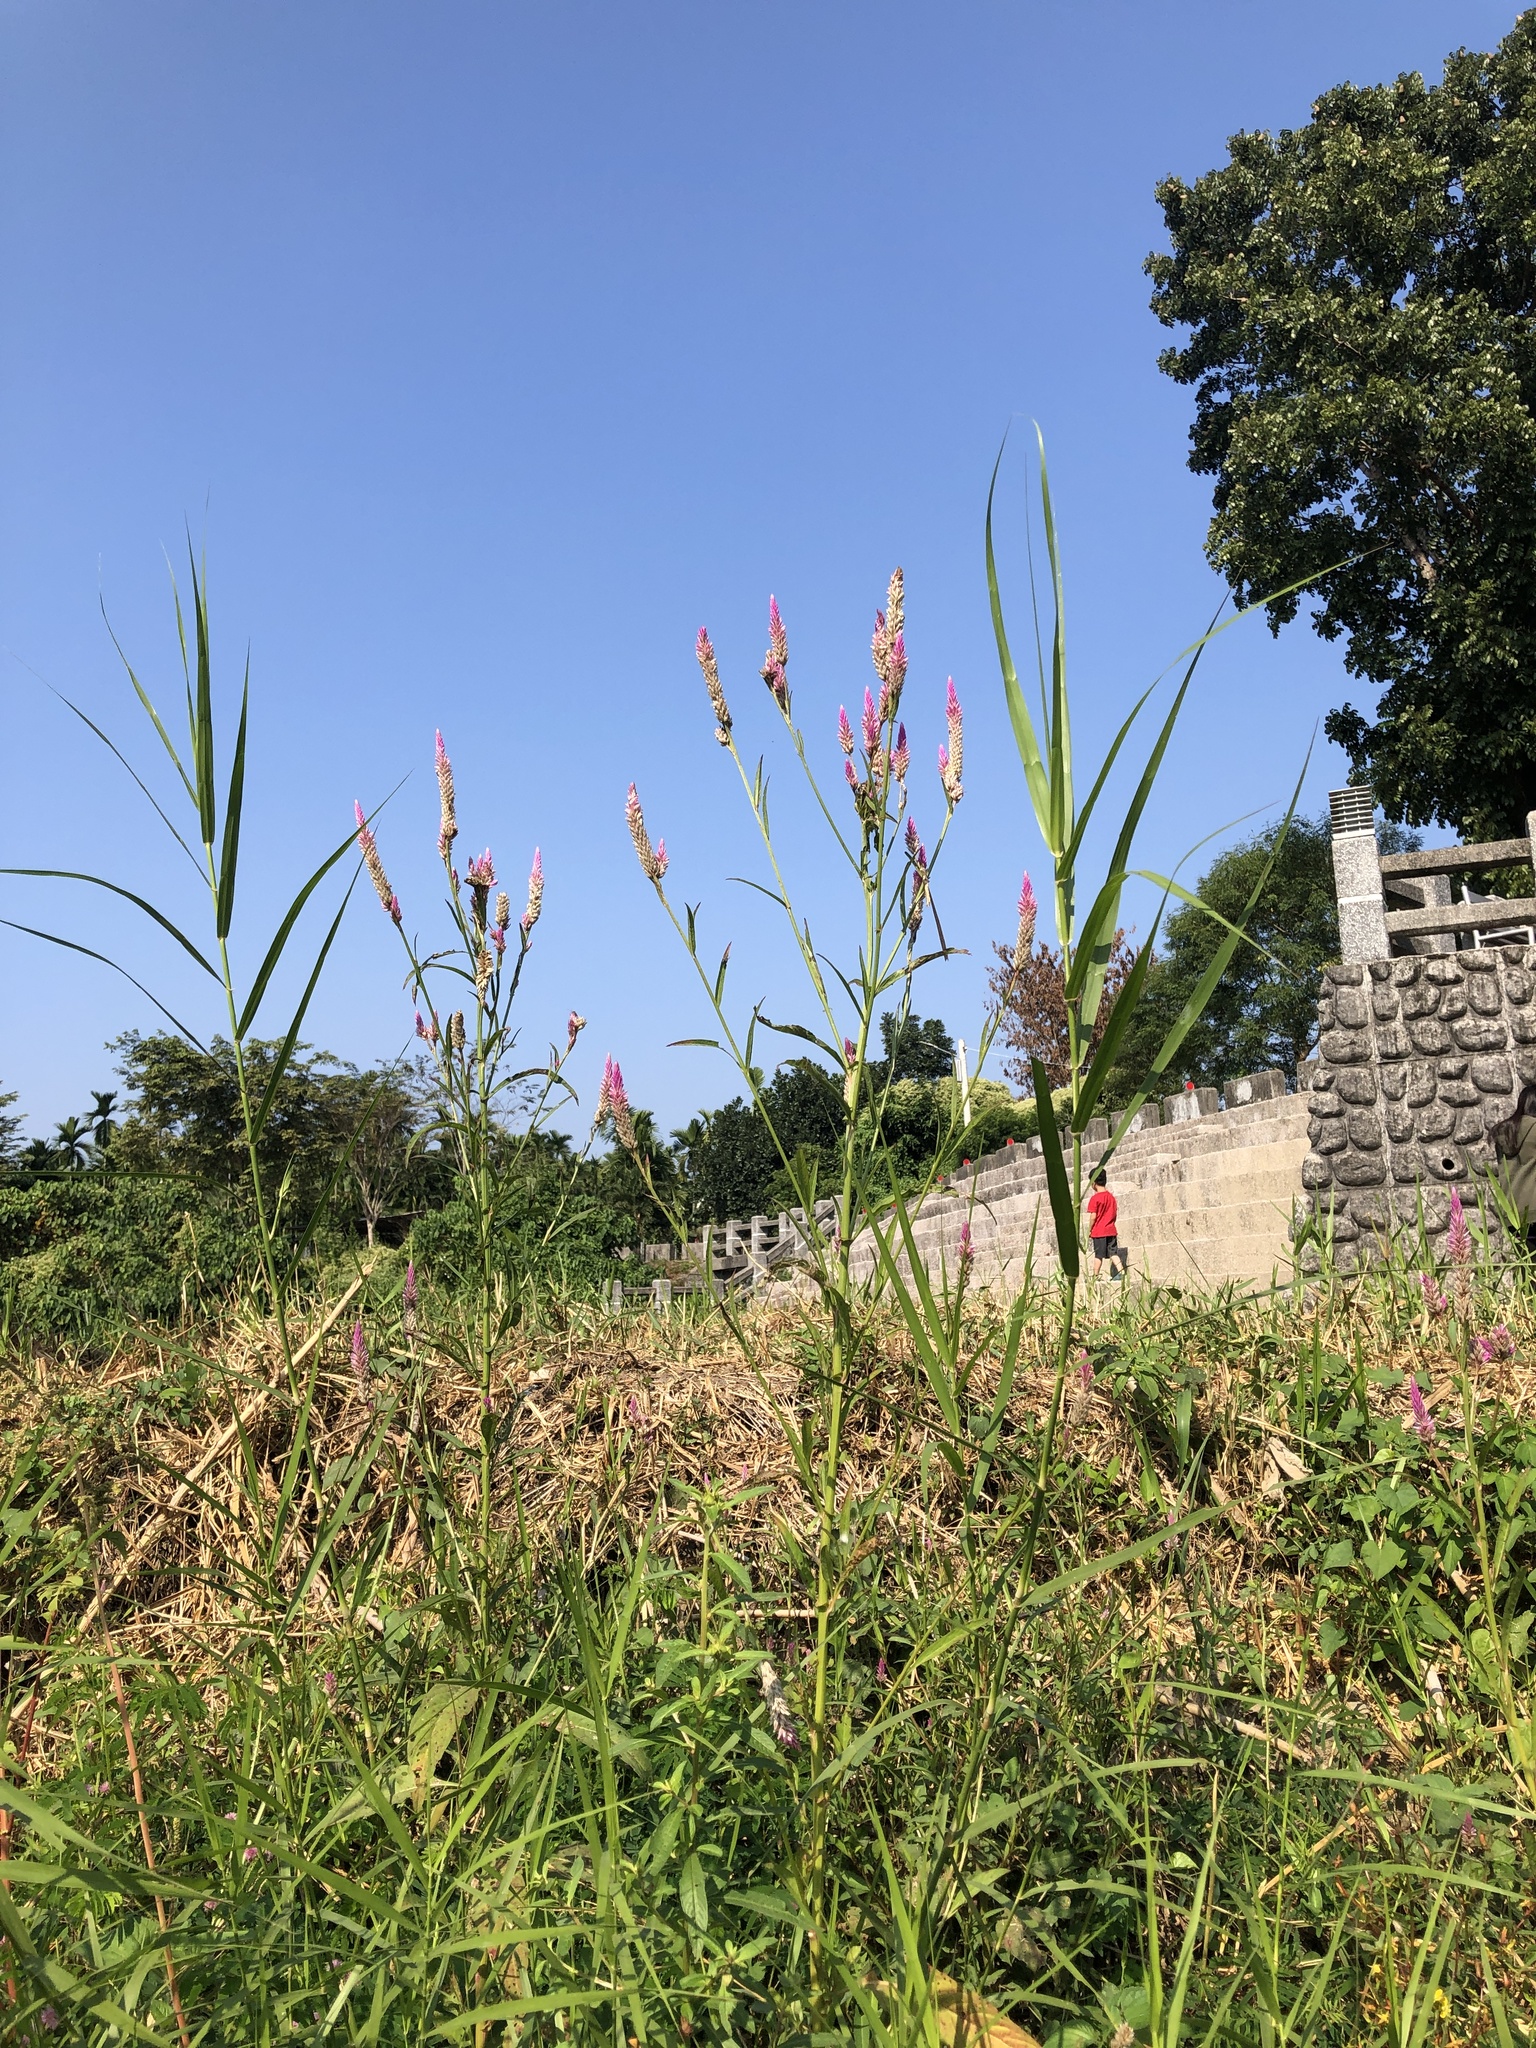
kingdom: Plantae
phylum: Tracheophyta
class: Magnoliopsida
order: Caryophyllales
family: Amaranthaceae
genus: Celosia
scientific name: Celosia argentea
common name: Feather cockscomb
